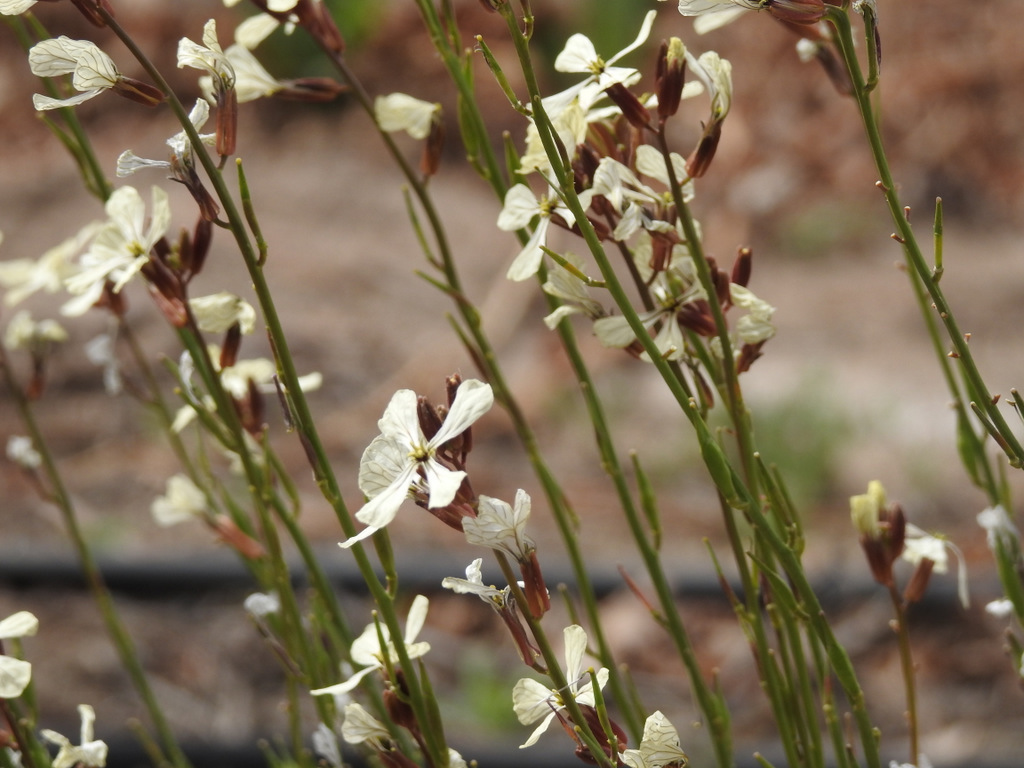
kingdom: Plantae
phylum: Tracheophyta
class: Magnoliopsida
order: Brassicales
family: Brassicaceae
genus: Eruca
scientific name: Eruca vesicaria
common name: Garden rocket
